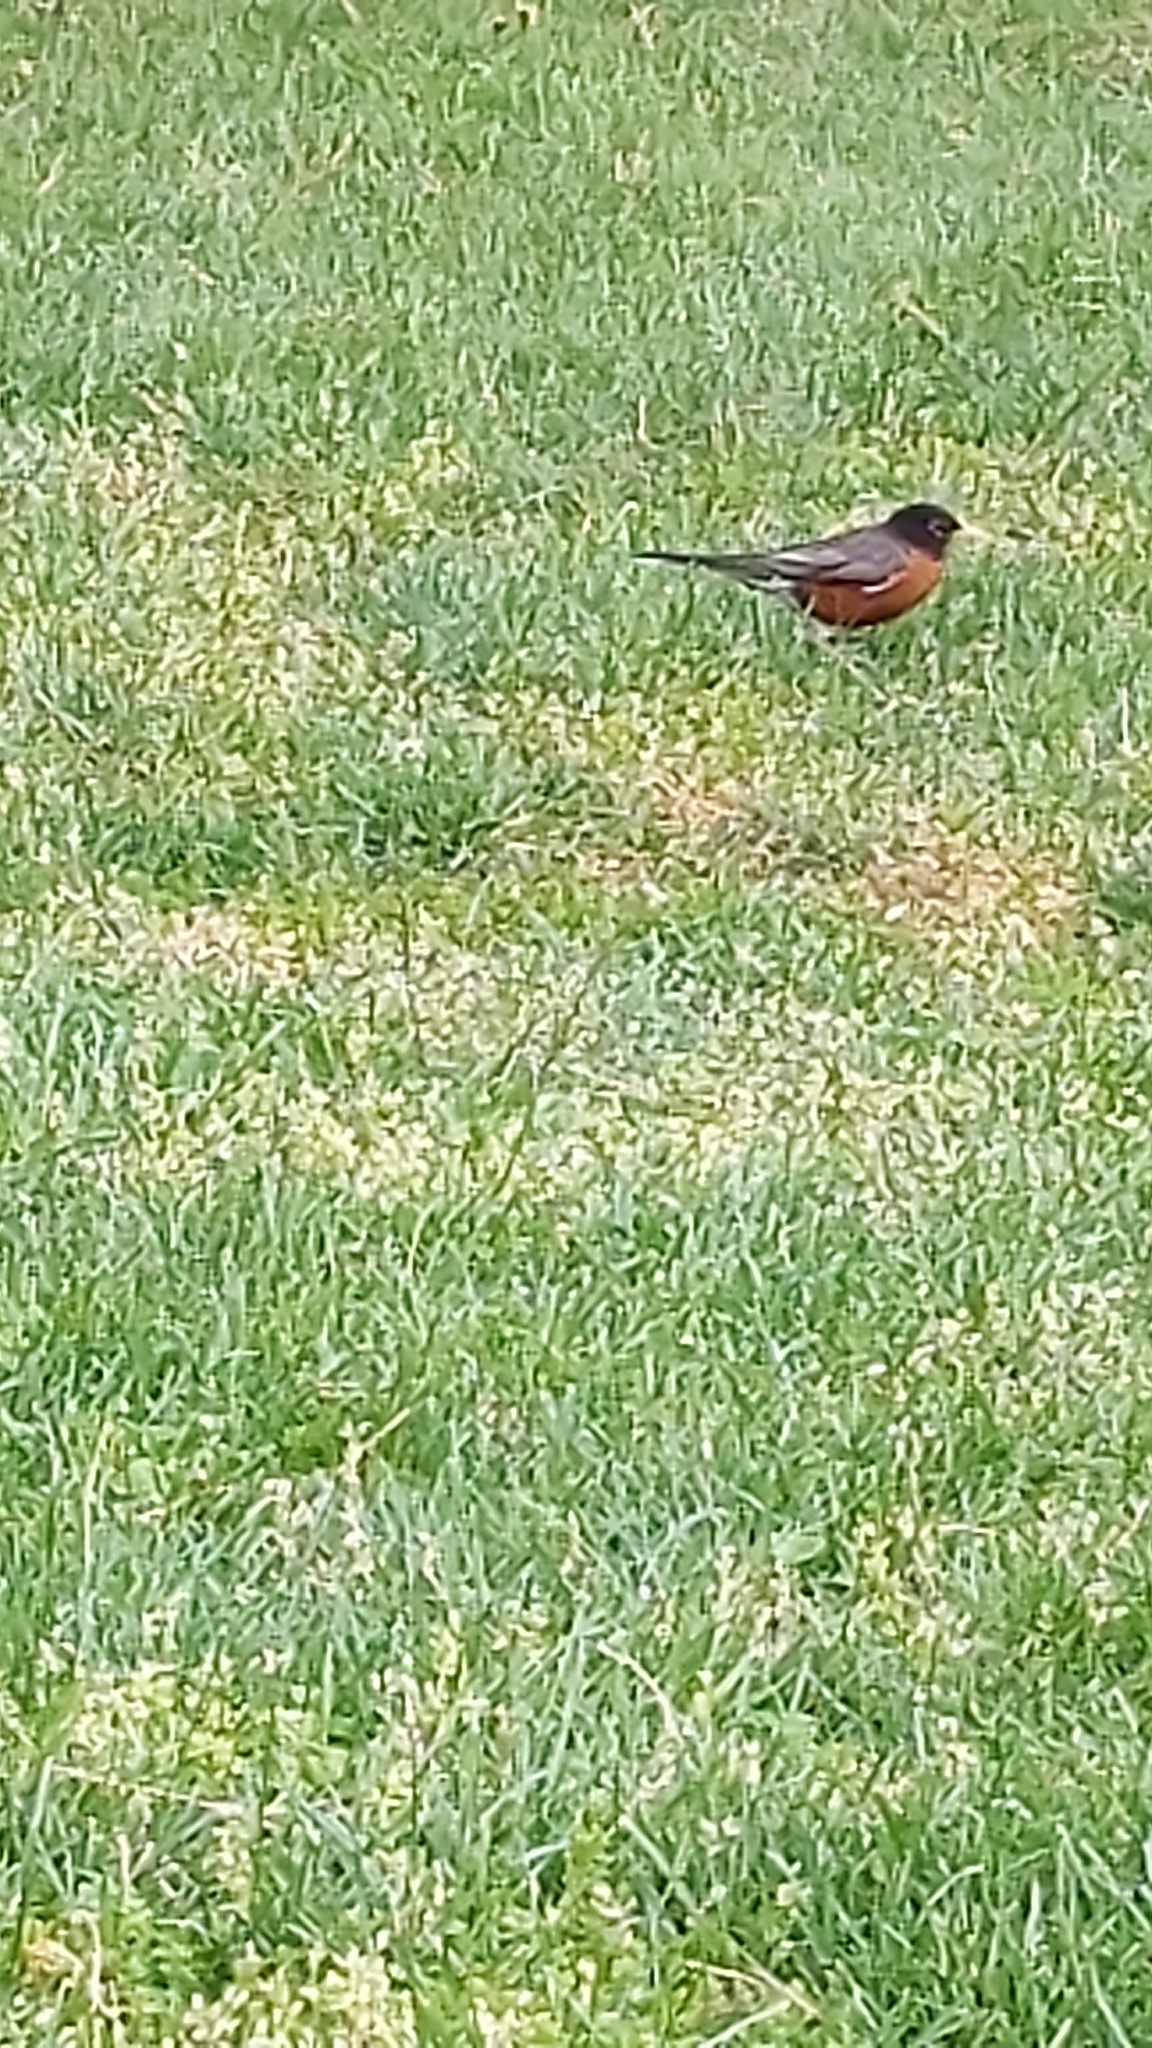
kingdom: Animalia
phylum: Chordata
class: Aves
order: Passeriformes
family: Turdidae
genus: Turdus
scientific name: Turdus migratorius
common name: American robin
